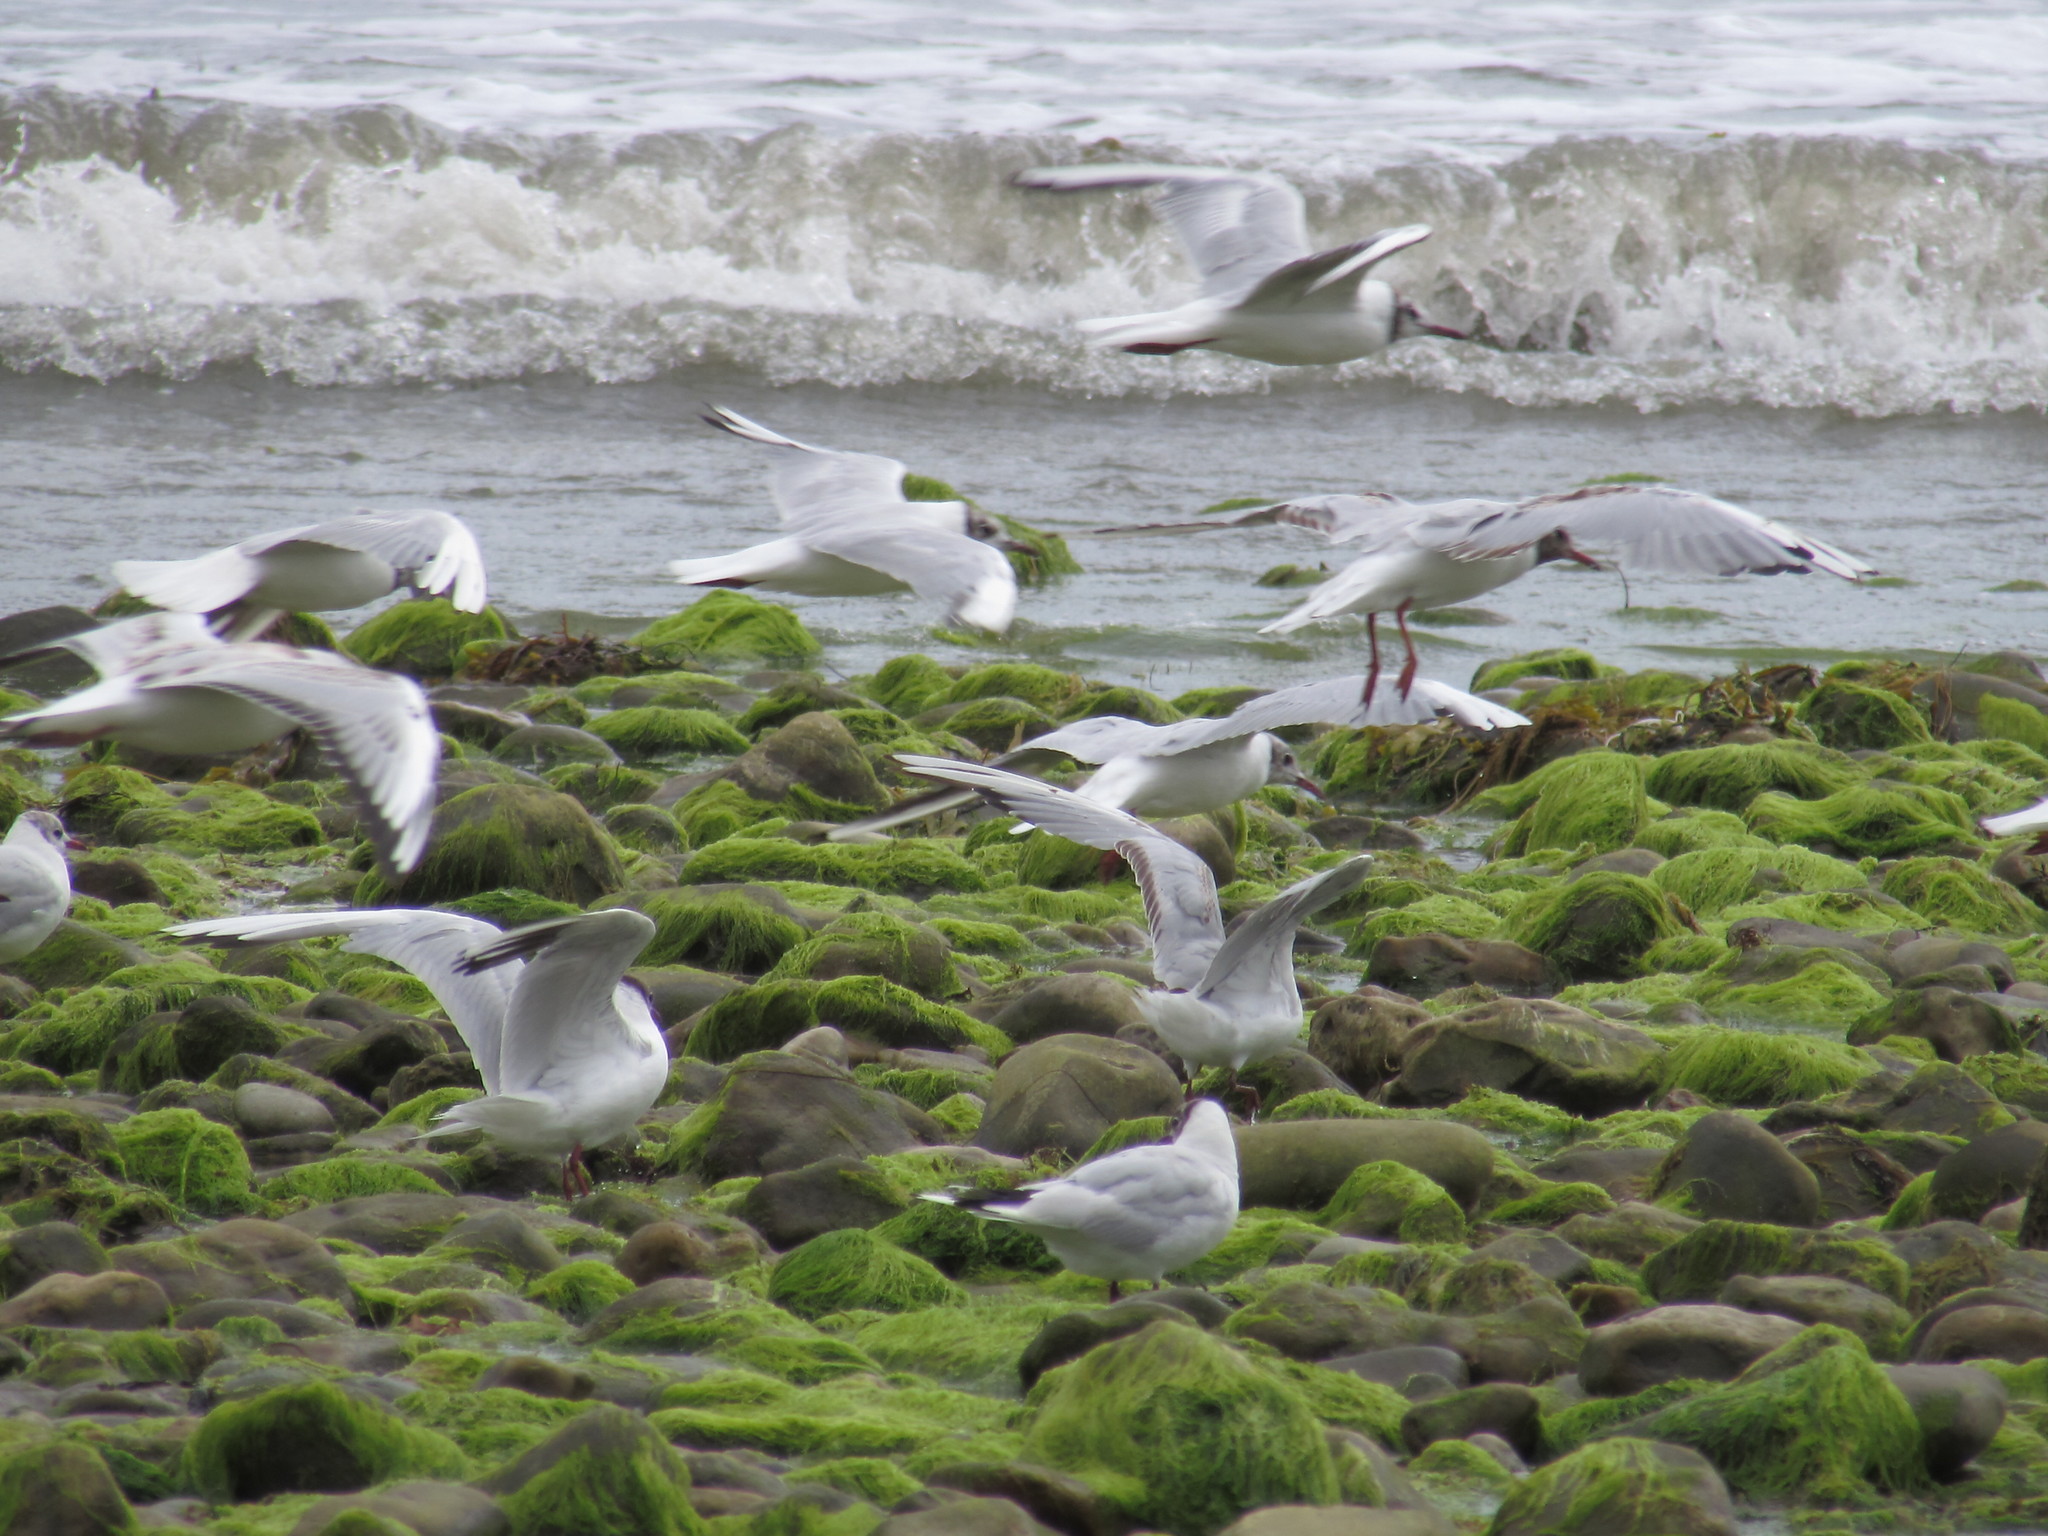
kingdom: Animalia
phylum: Chordata
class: Aves
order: Charadriiformes
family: Laridae
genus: Chroicocephalus
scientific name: Chroicocephalus ridibundus
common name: Black-headed gull
